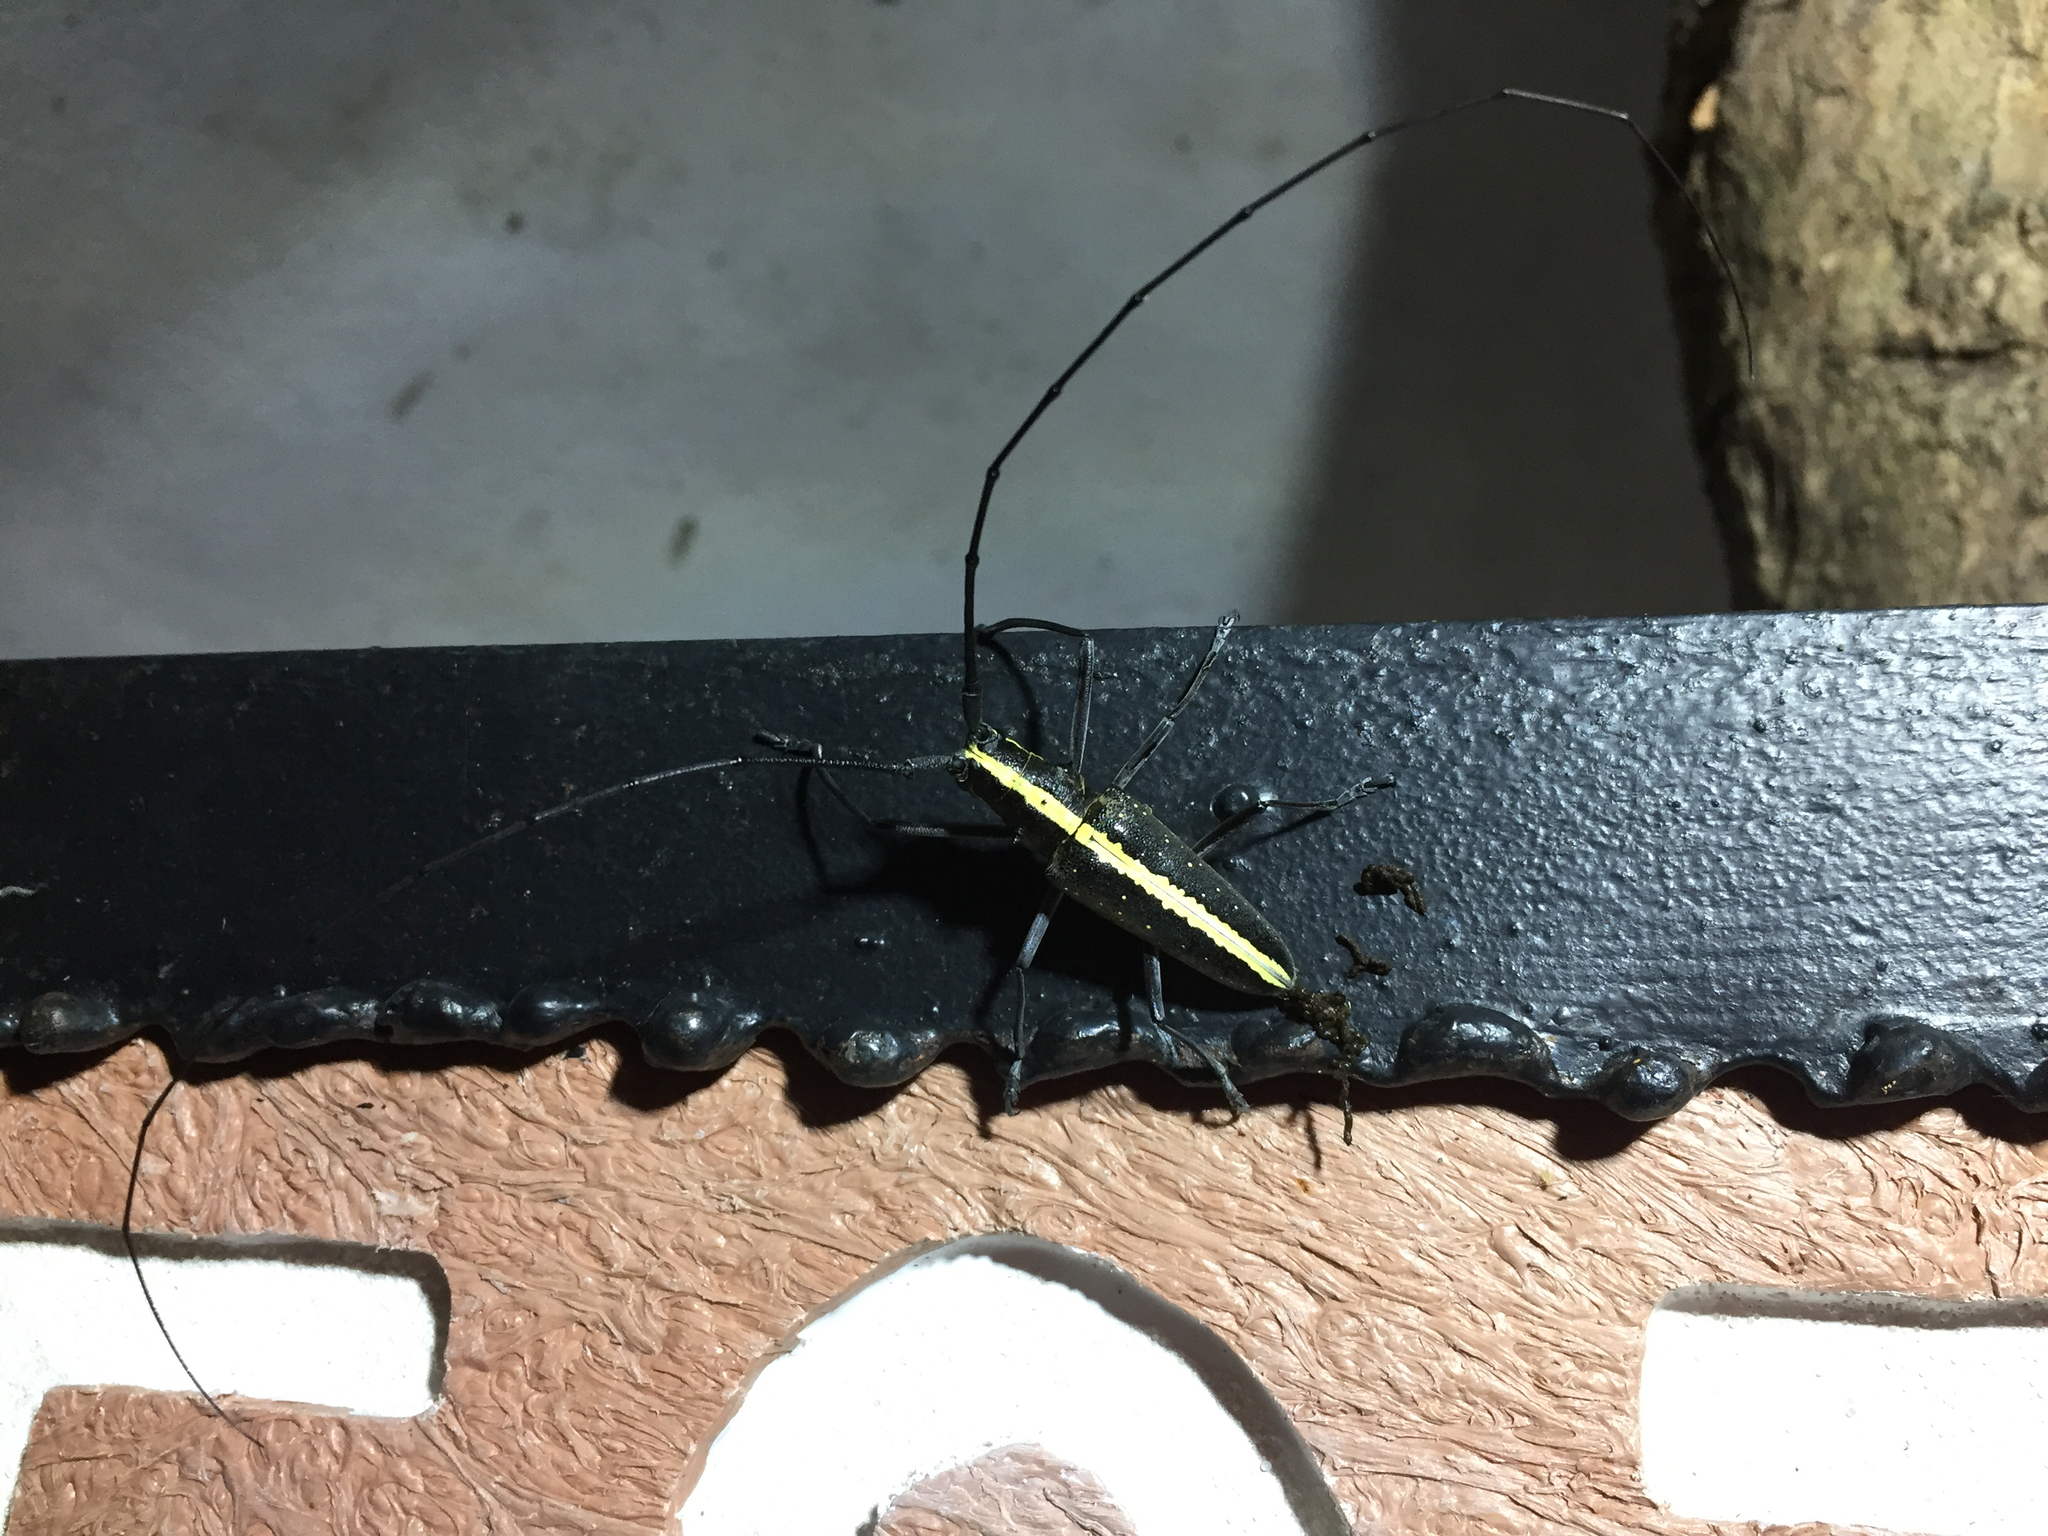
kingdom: Animalia
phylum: Arthropoda
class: Insecta
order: Coleoptera
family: Cerambycidae
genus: Taeniotes
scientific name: Taeniotes scalatus
